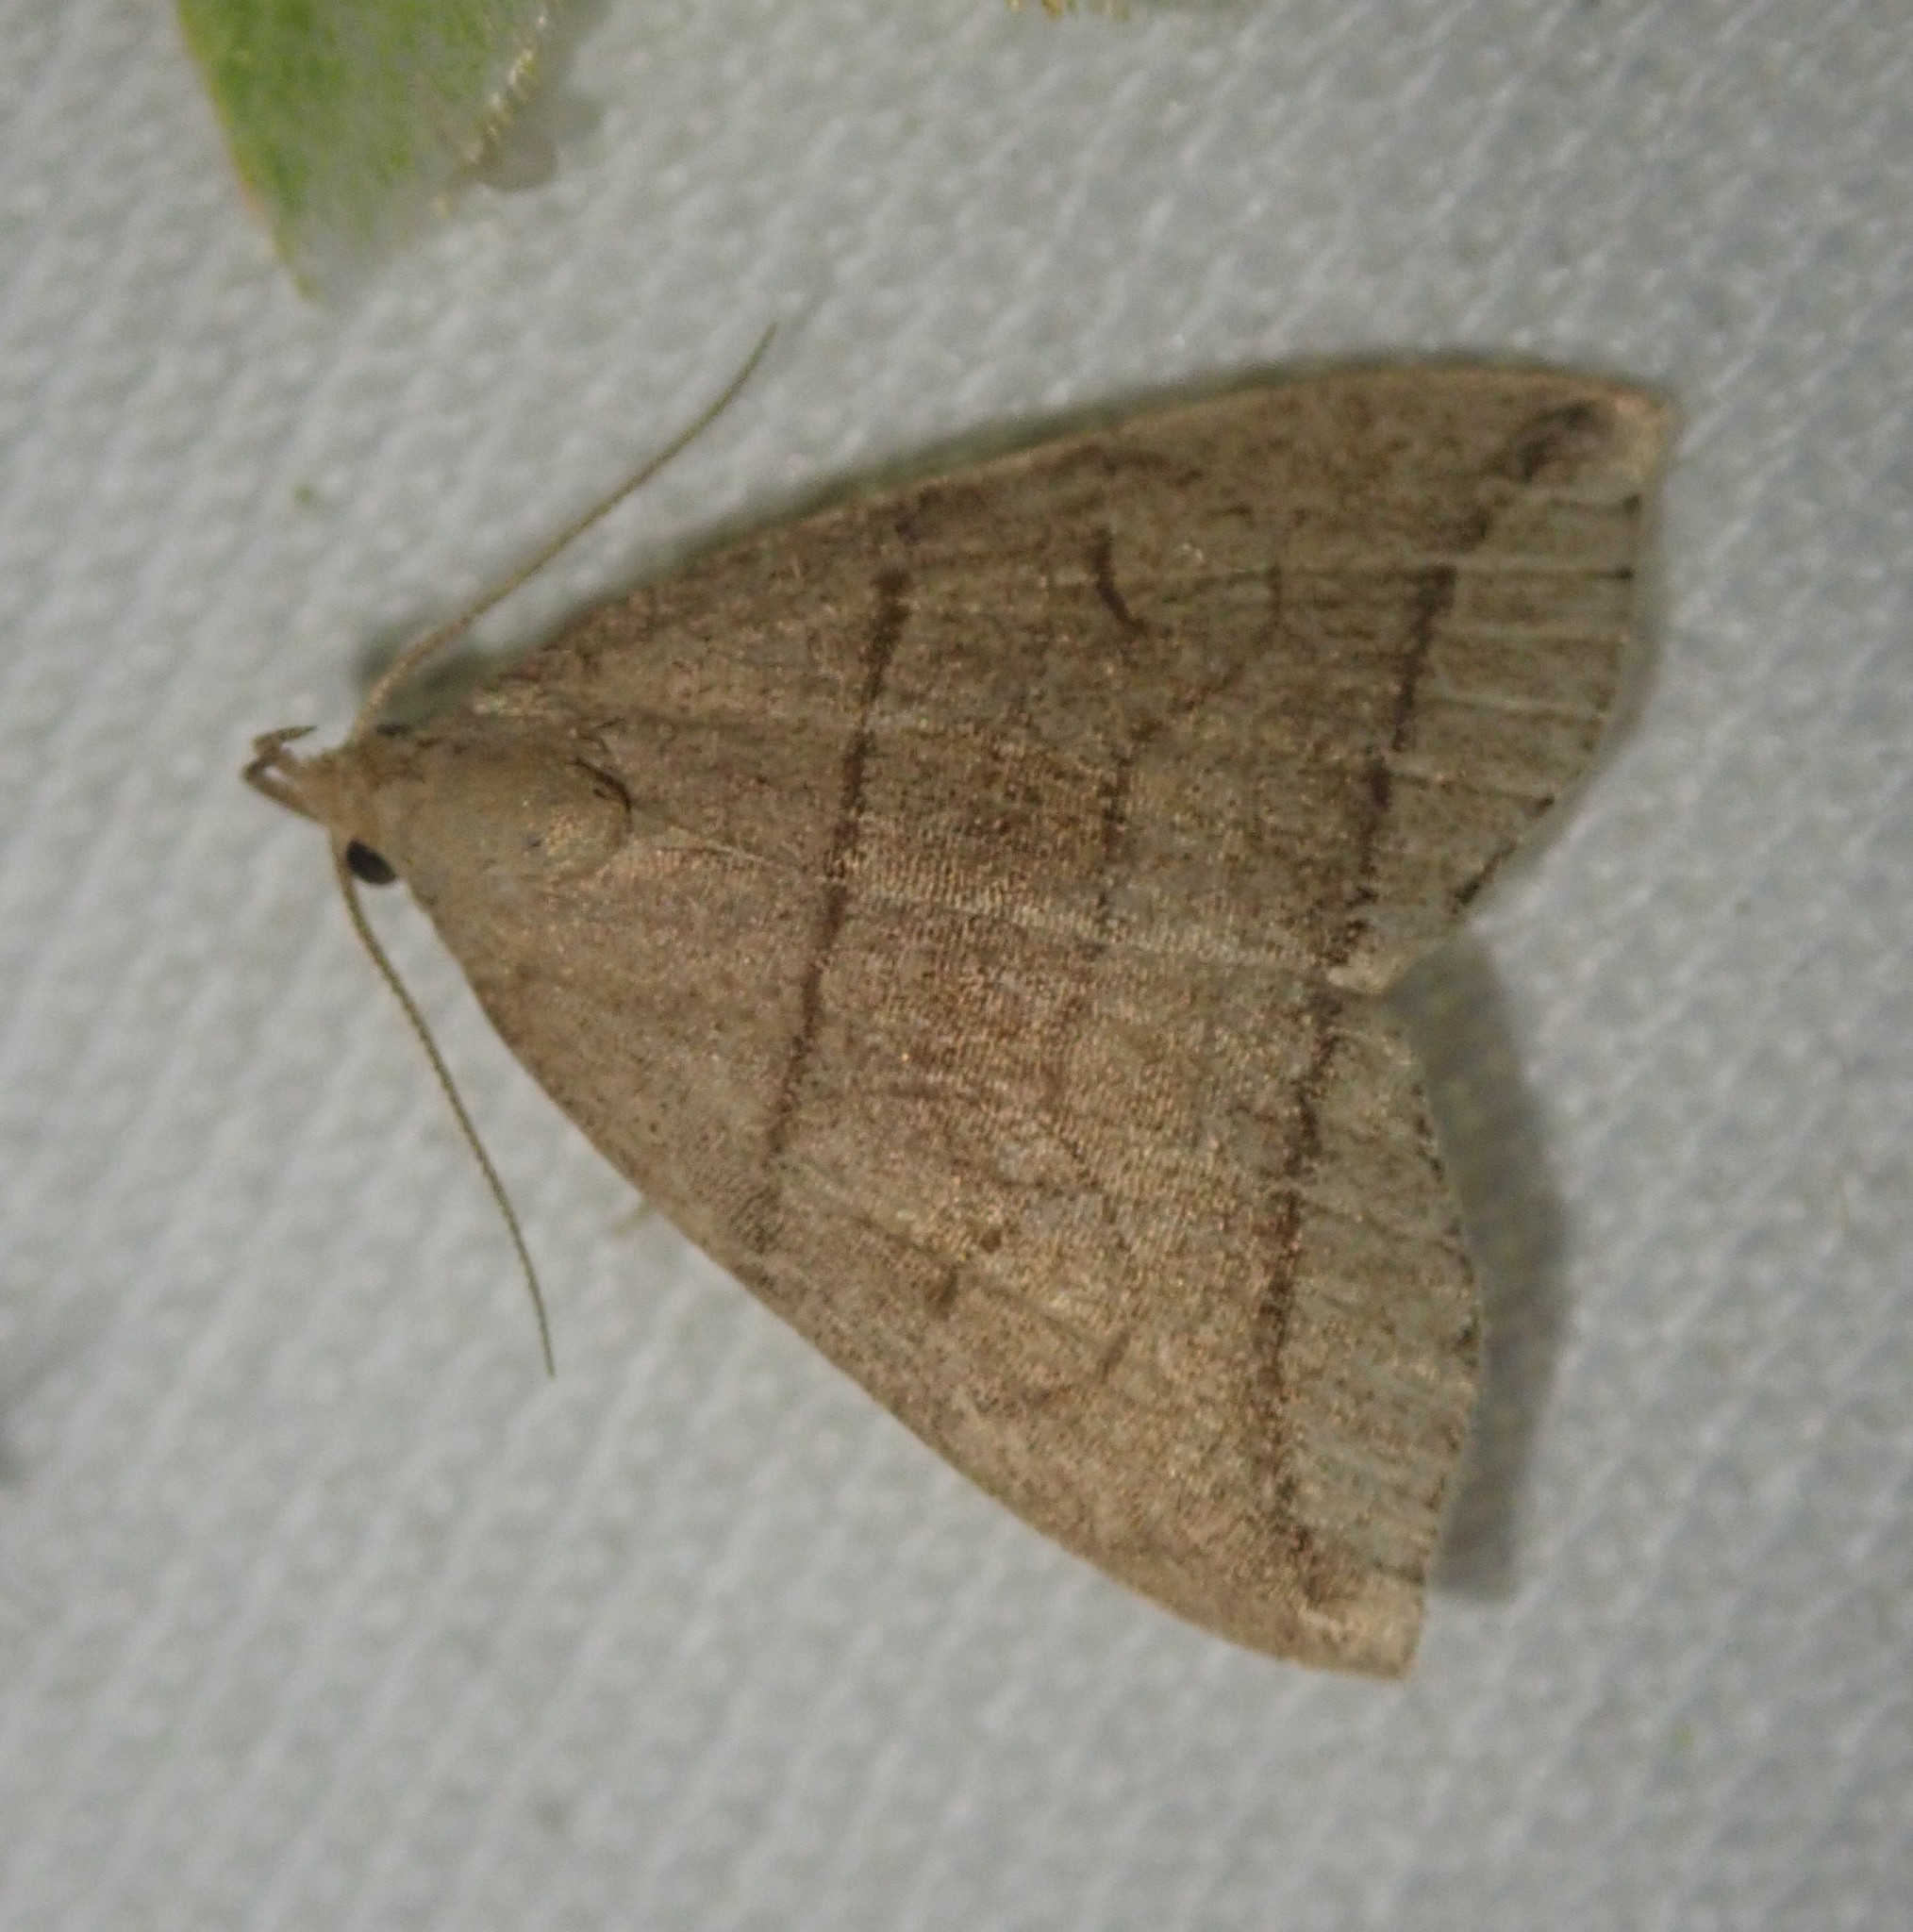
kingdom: Animalia
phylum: Arthropoda
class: Insecta
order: Lepidoptera
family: Erebidae
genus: Herminia
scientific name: Herminia grisealis
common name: Small fan-foot
